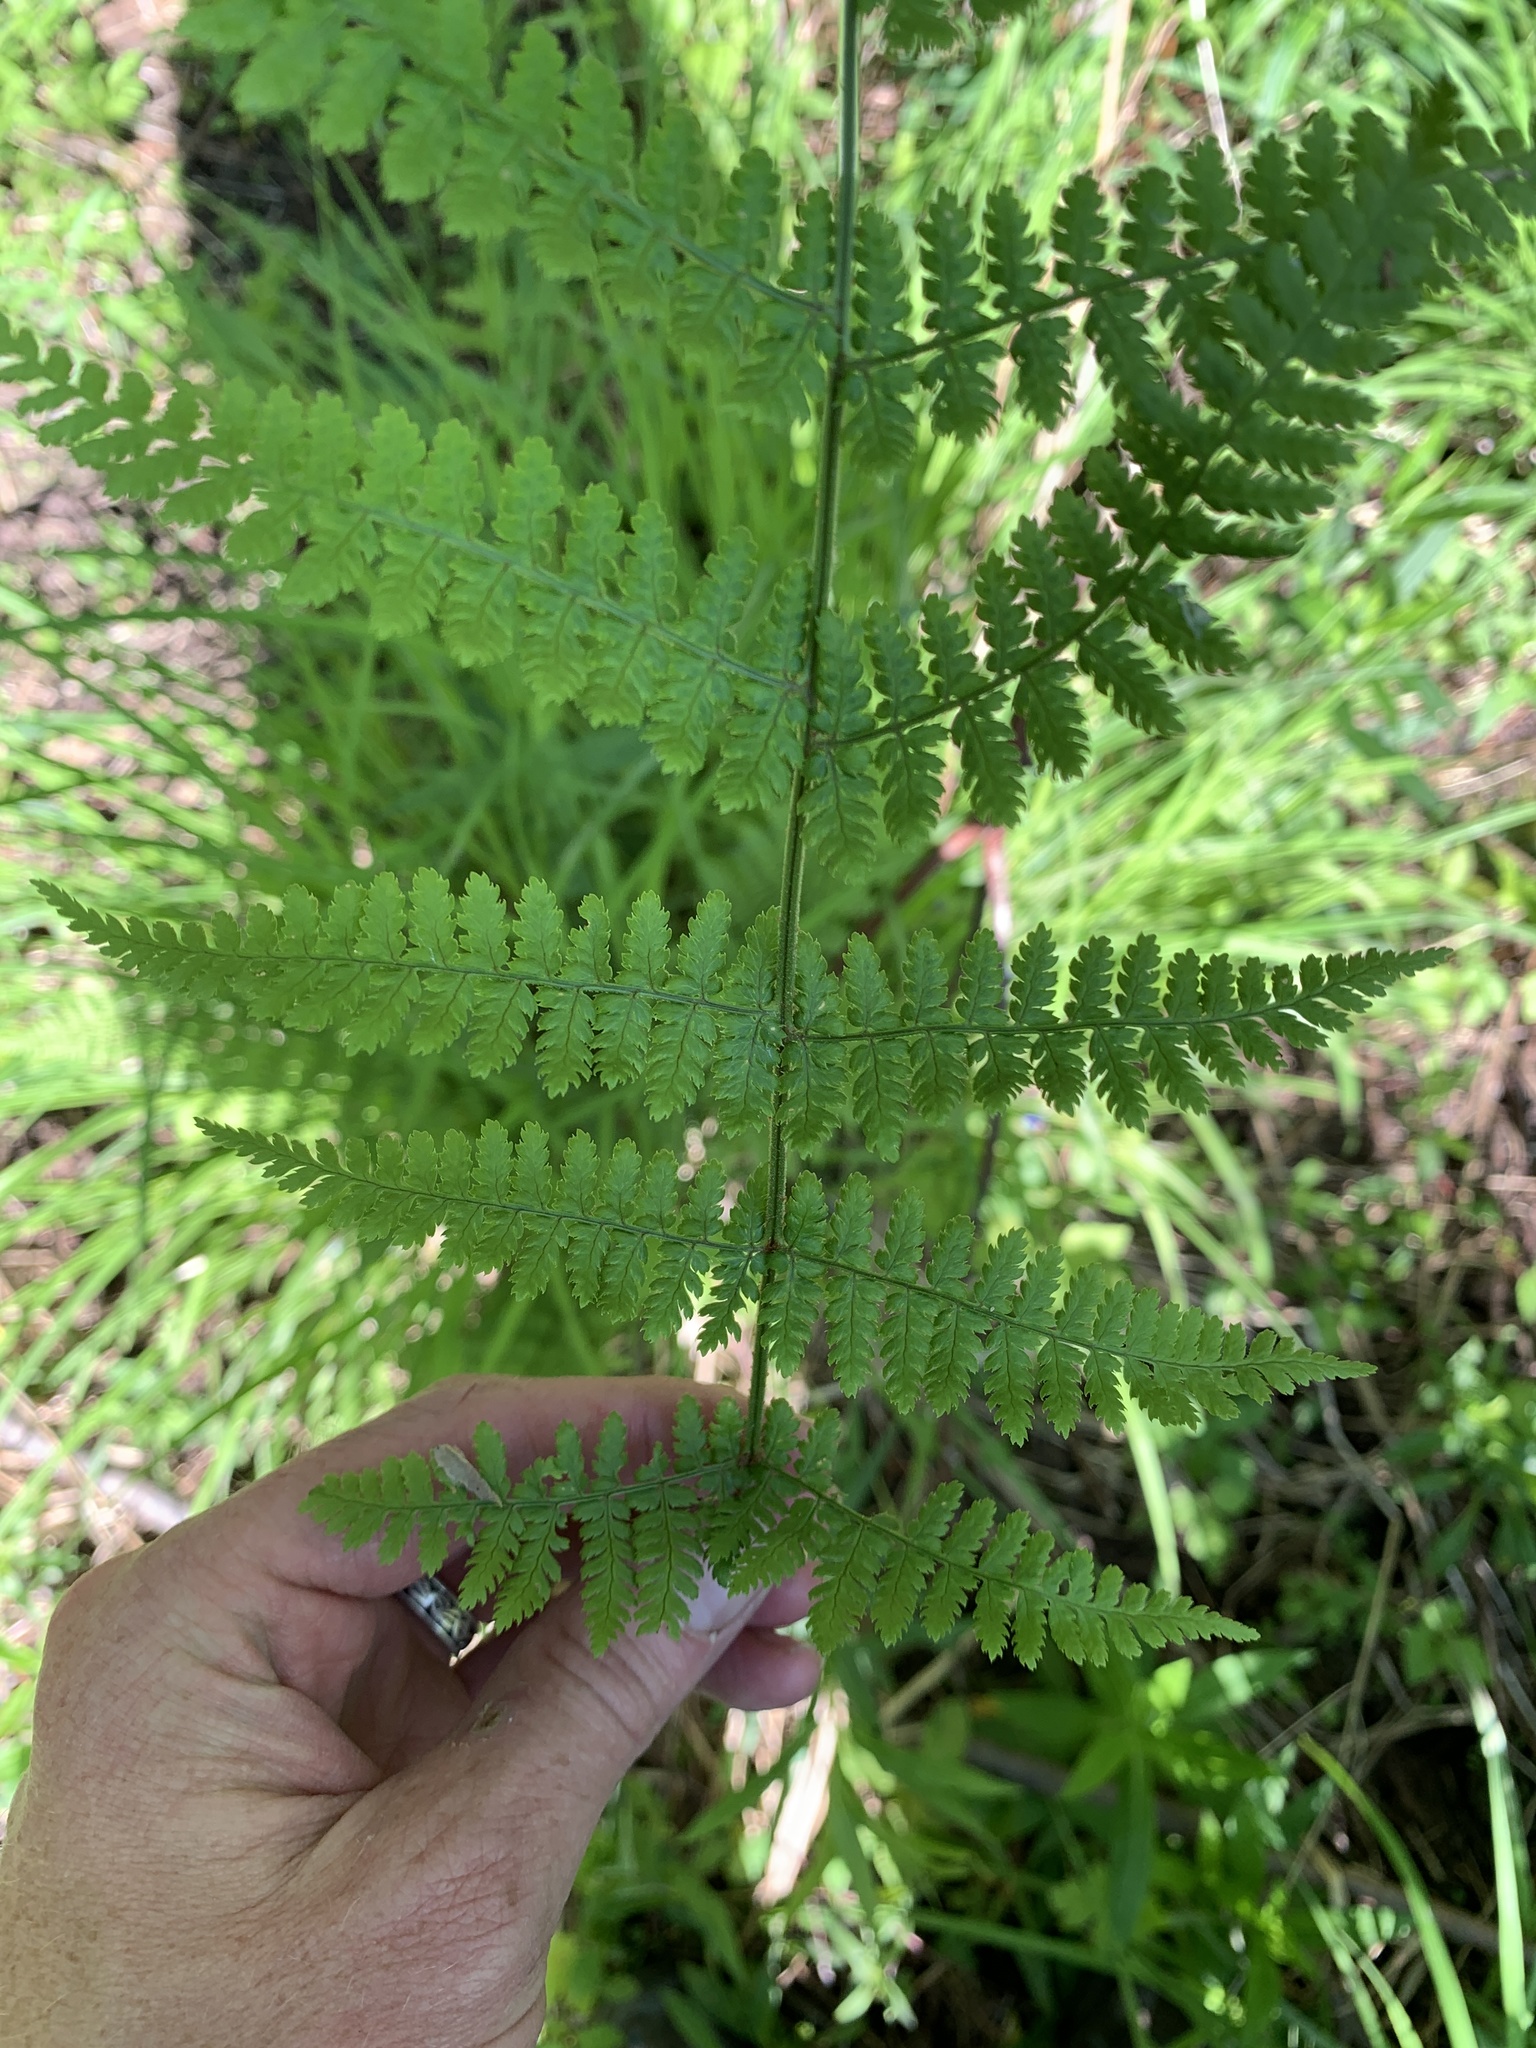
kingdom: Plantae
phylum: Tracheophyta
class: Polypodiopsida
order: Polypodiales
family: Dryopteridaceae
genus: Dryopteris
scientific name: Dryopteris intermedia
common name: Evergreen wood fern
